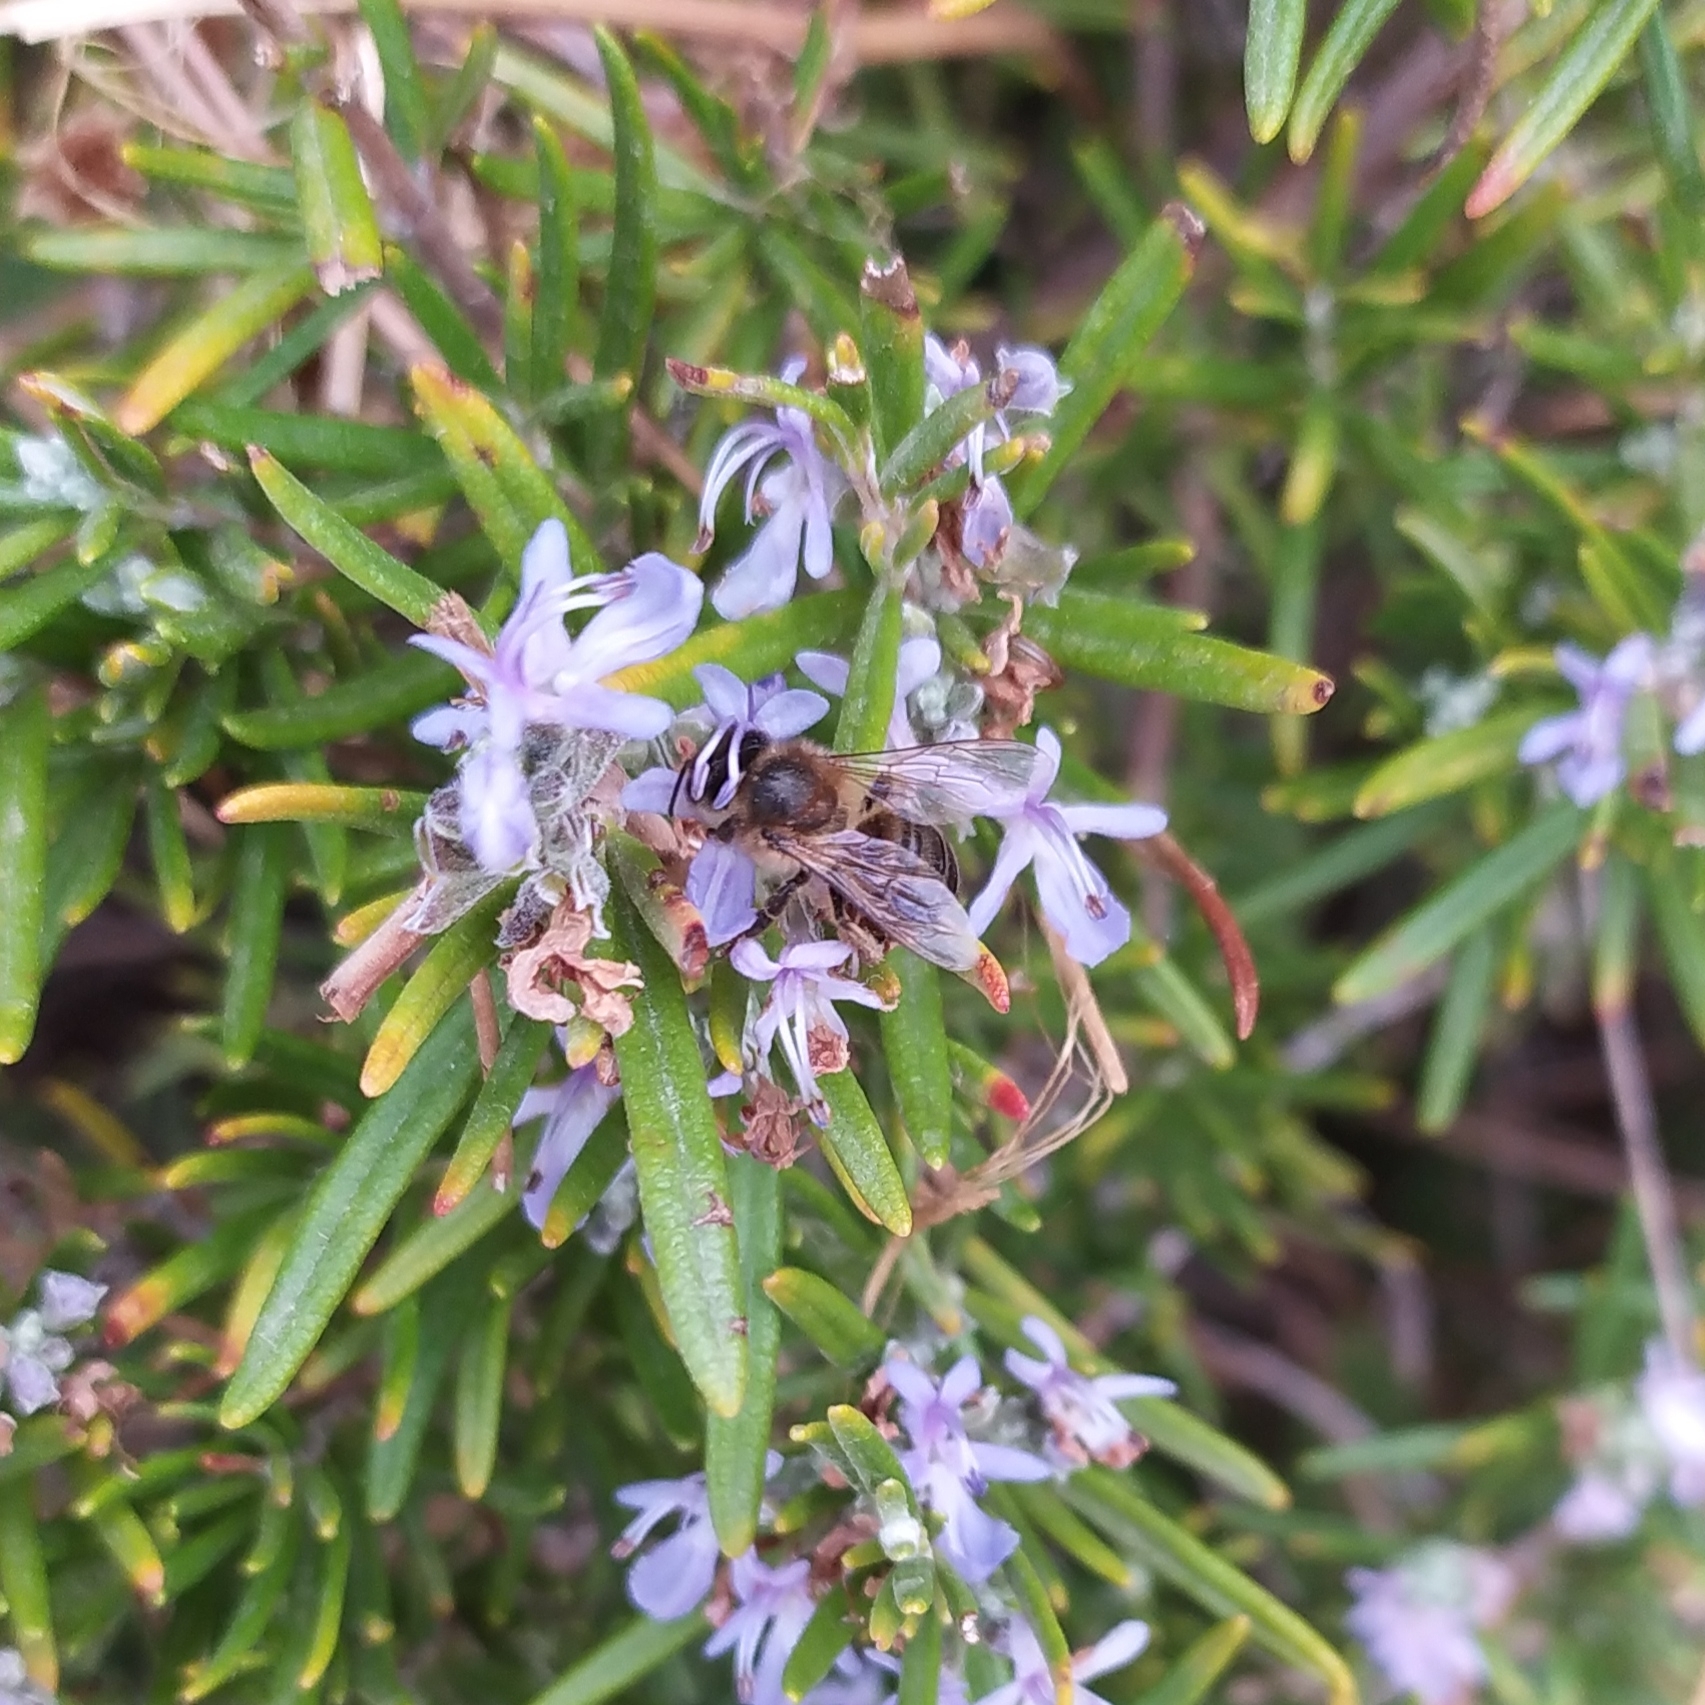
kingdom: Animalia
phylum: Arthropoda
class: Insecta
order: Hymenoptera
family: Apidae
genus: Apis
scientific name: Apis mellifera
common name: Honey bee
